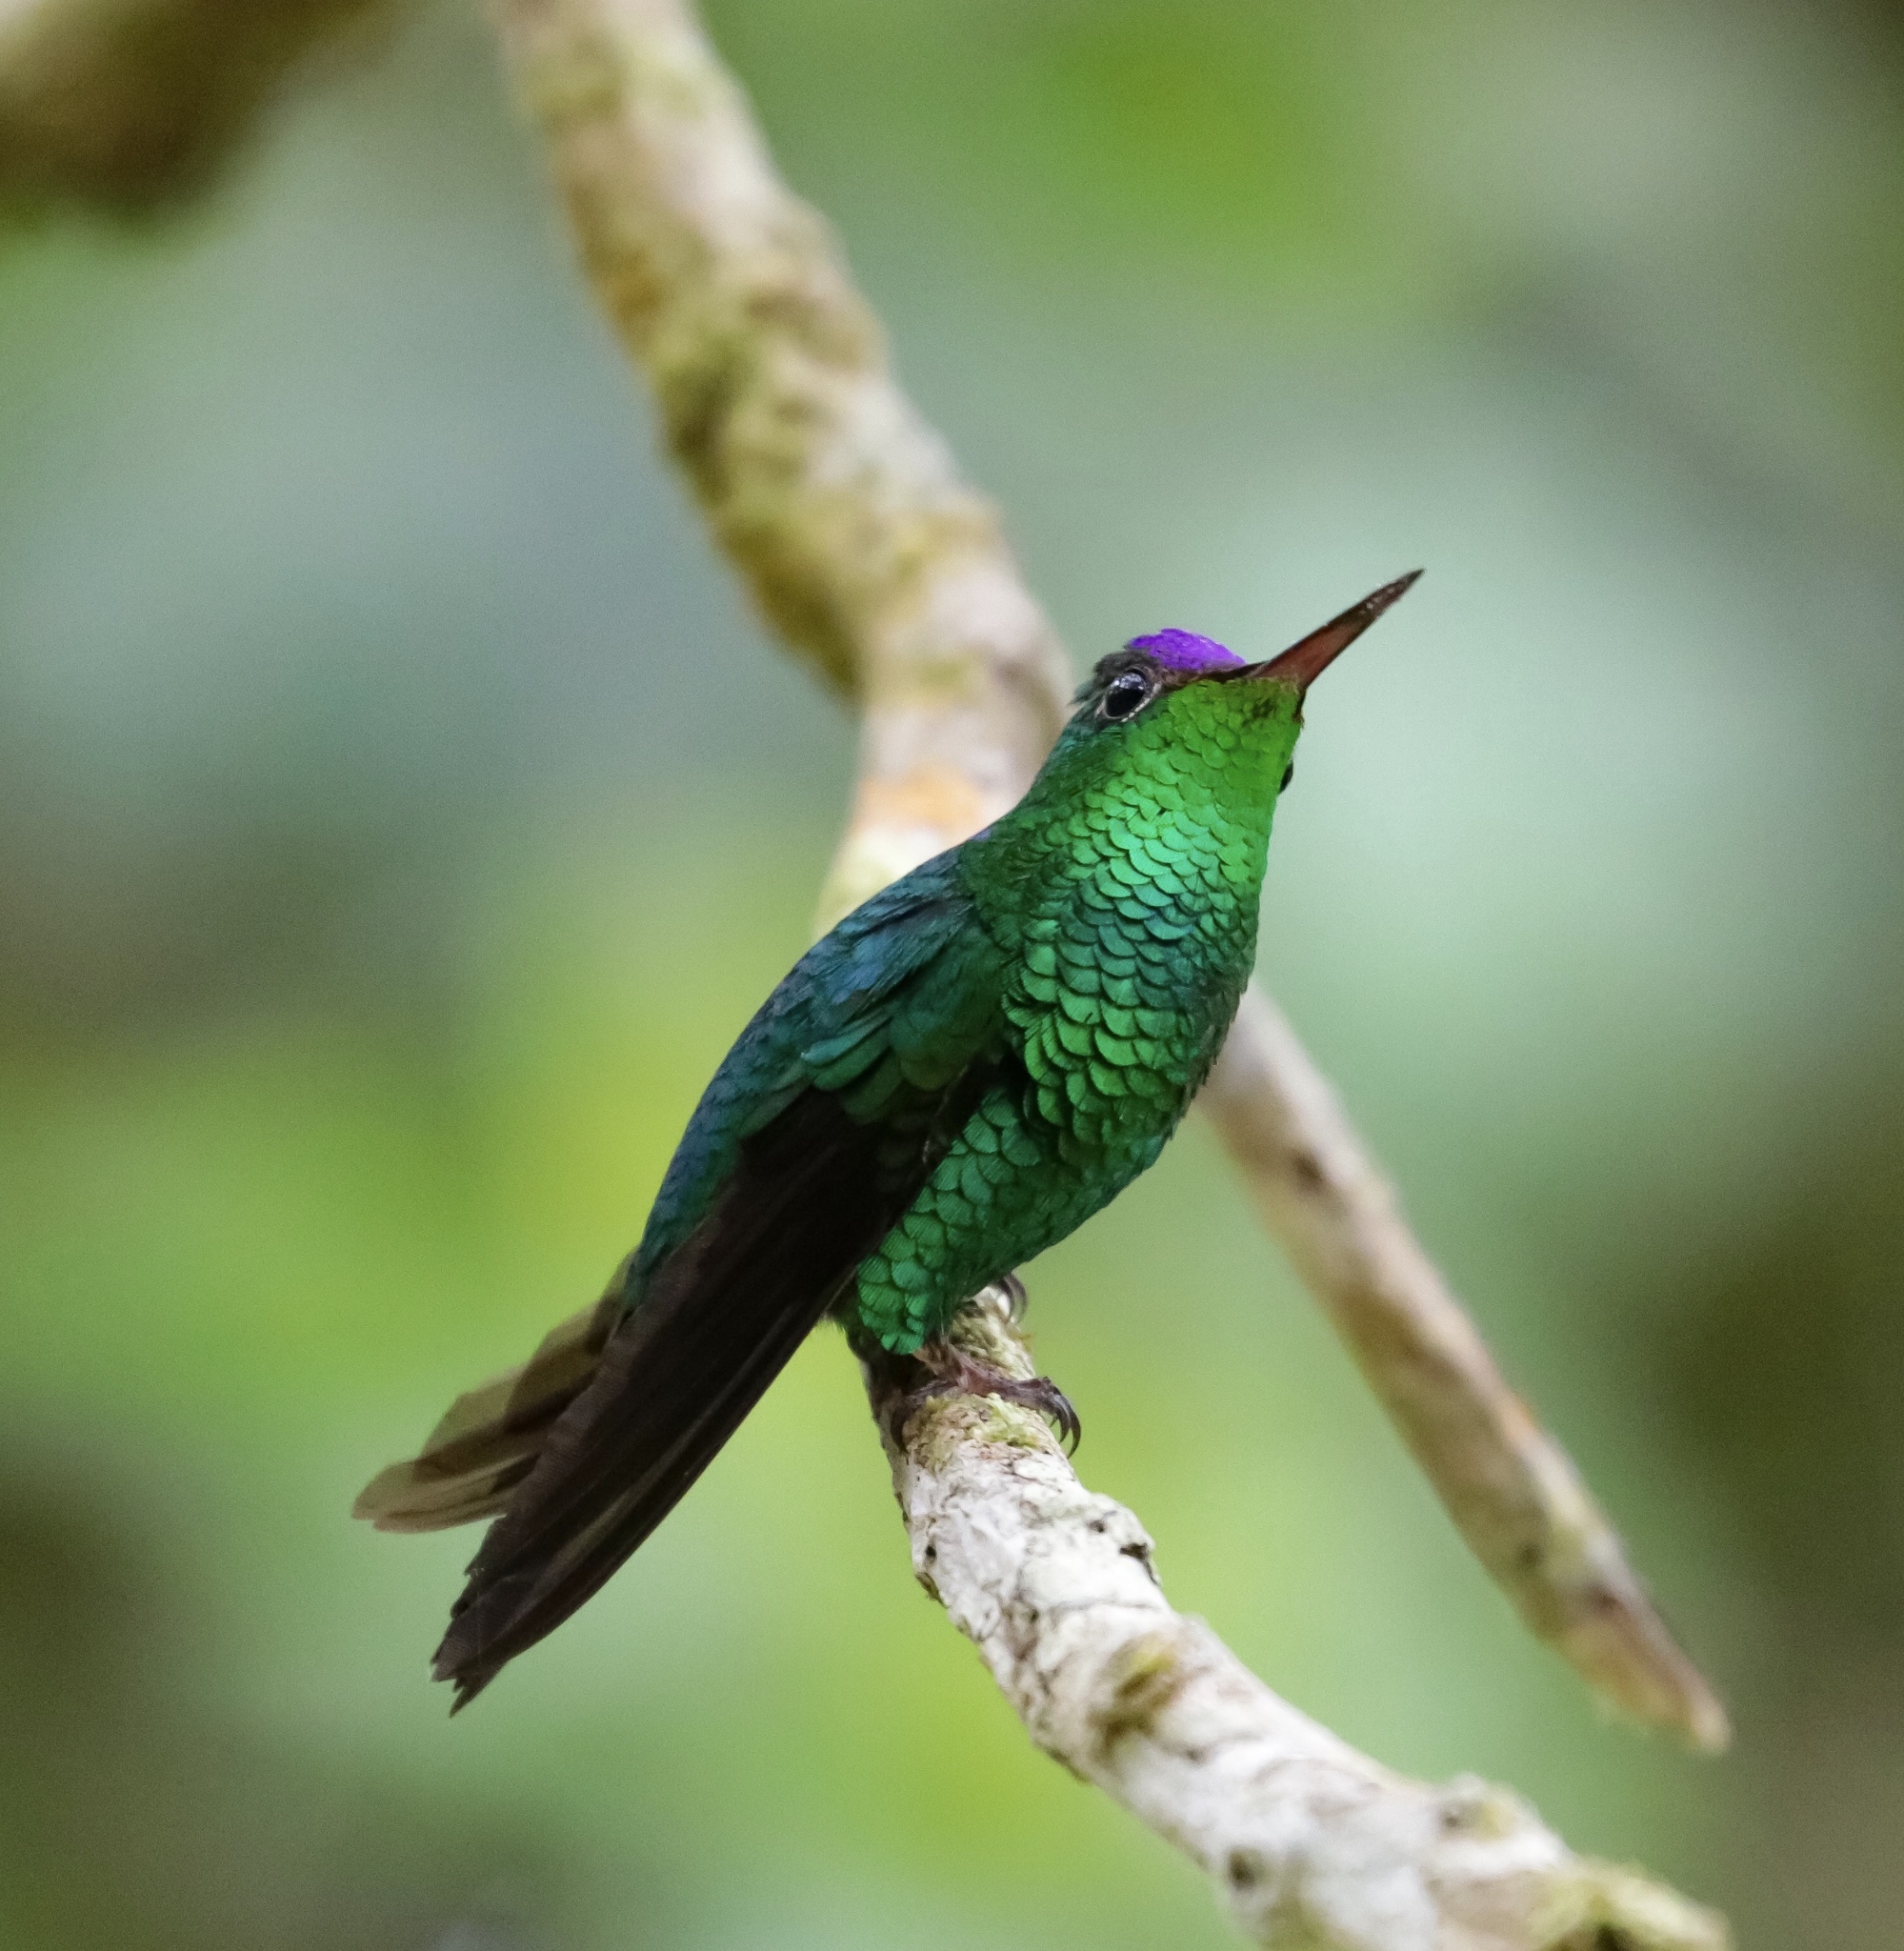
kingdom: Animalia
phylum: Chordata
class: Aves
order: Apodiformes
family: Trochilidae
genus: Goldmania
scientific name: Goldmania violiceps
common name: Violet-capped hummingbird
